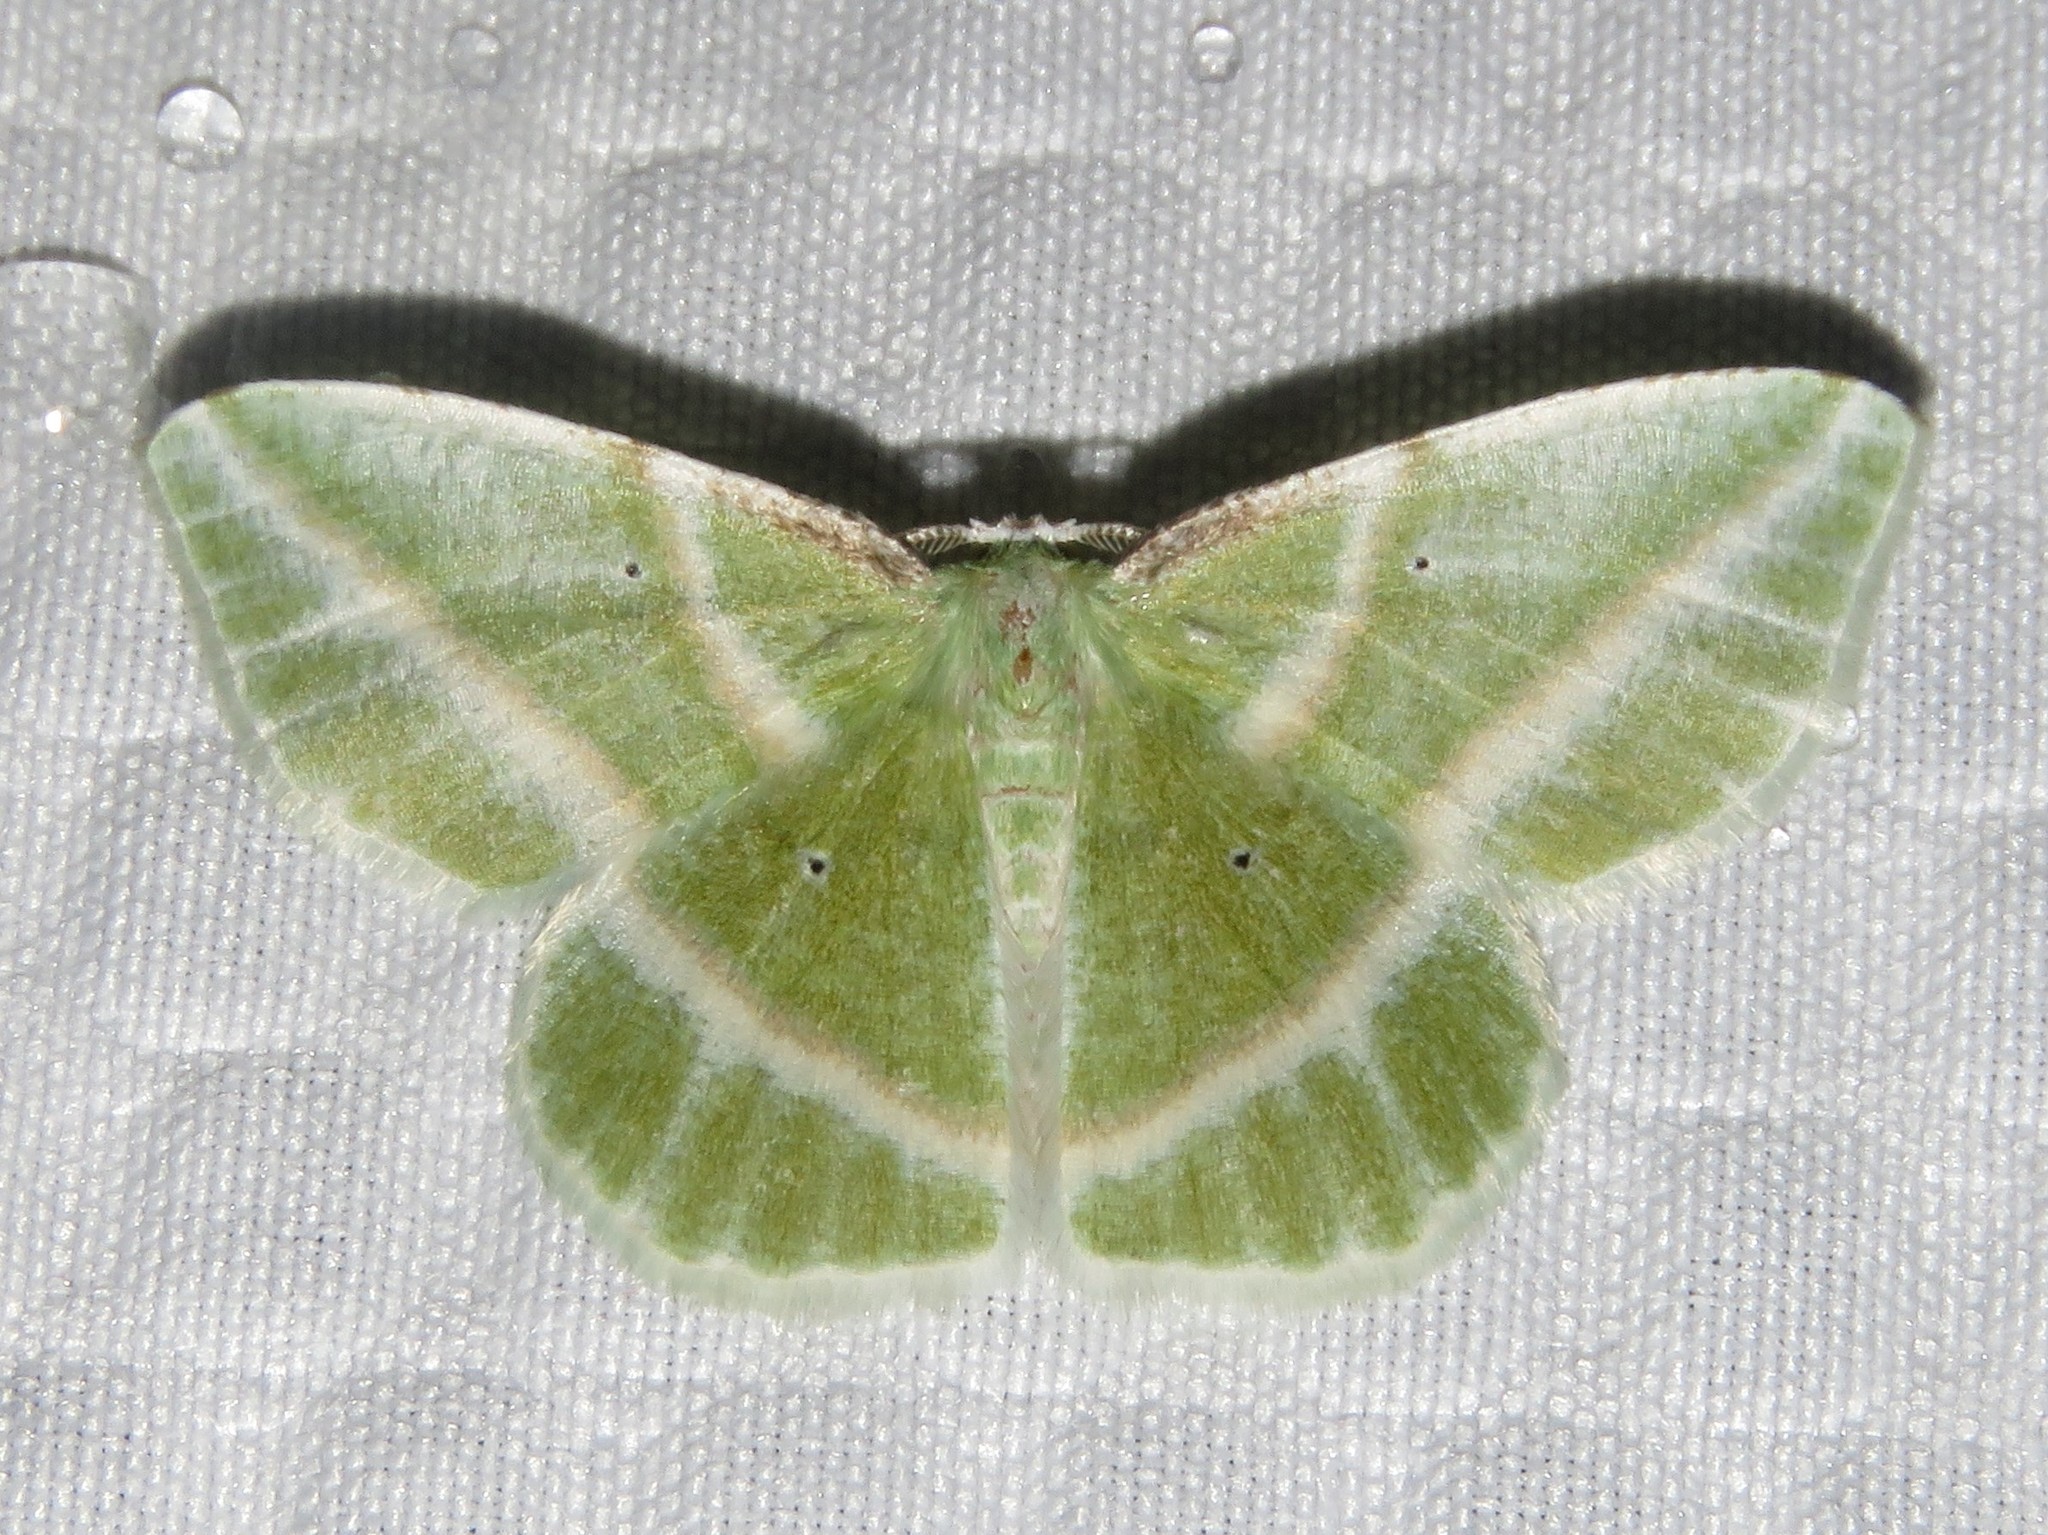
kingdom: Animalia
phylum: Arthropoda
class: Insecta
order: Lepidoptera
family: Geometridae
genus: Dichorda
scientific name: Dichorda iridaria
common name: Showy emerald
